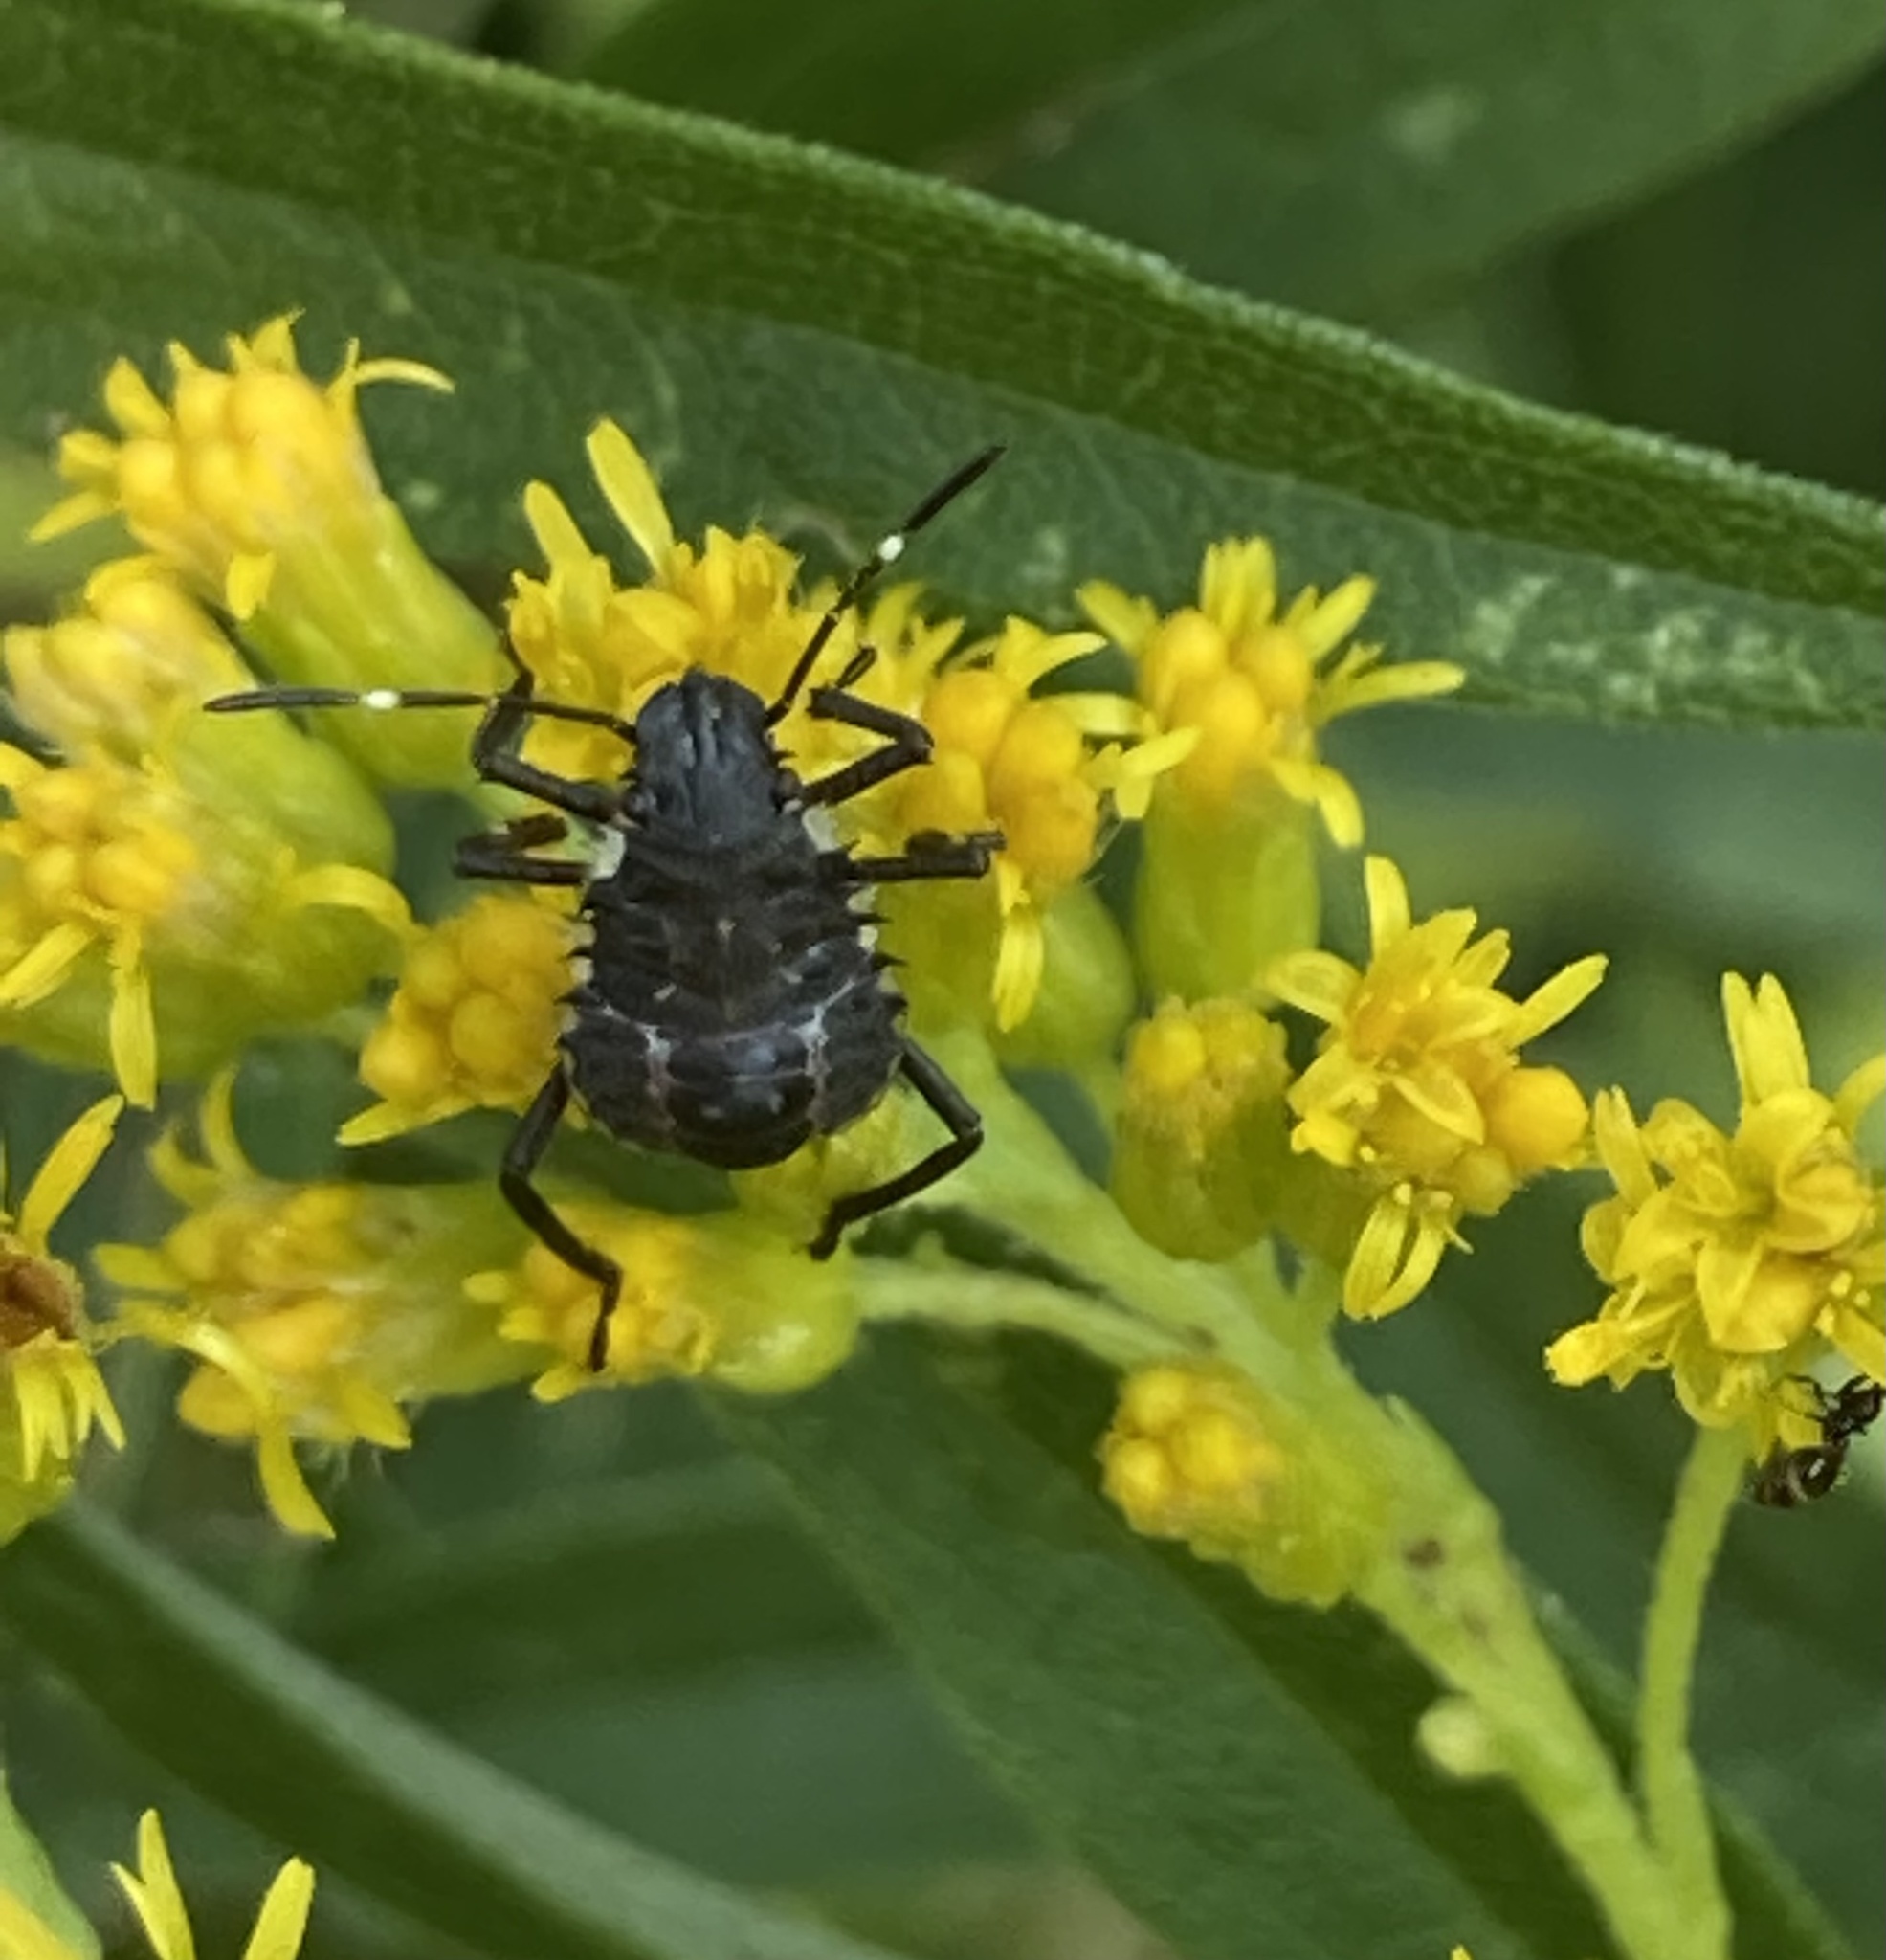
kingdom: Animalia
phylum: Arthropoda
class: Insecta
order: Hemiptera
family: Pentatomidae
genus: Halyomorpha
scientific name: Halyomorpha halys
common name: Brown marmorated stink bug
